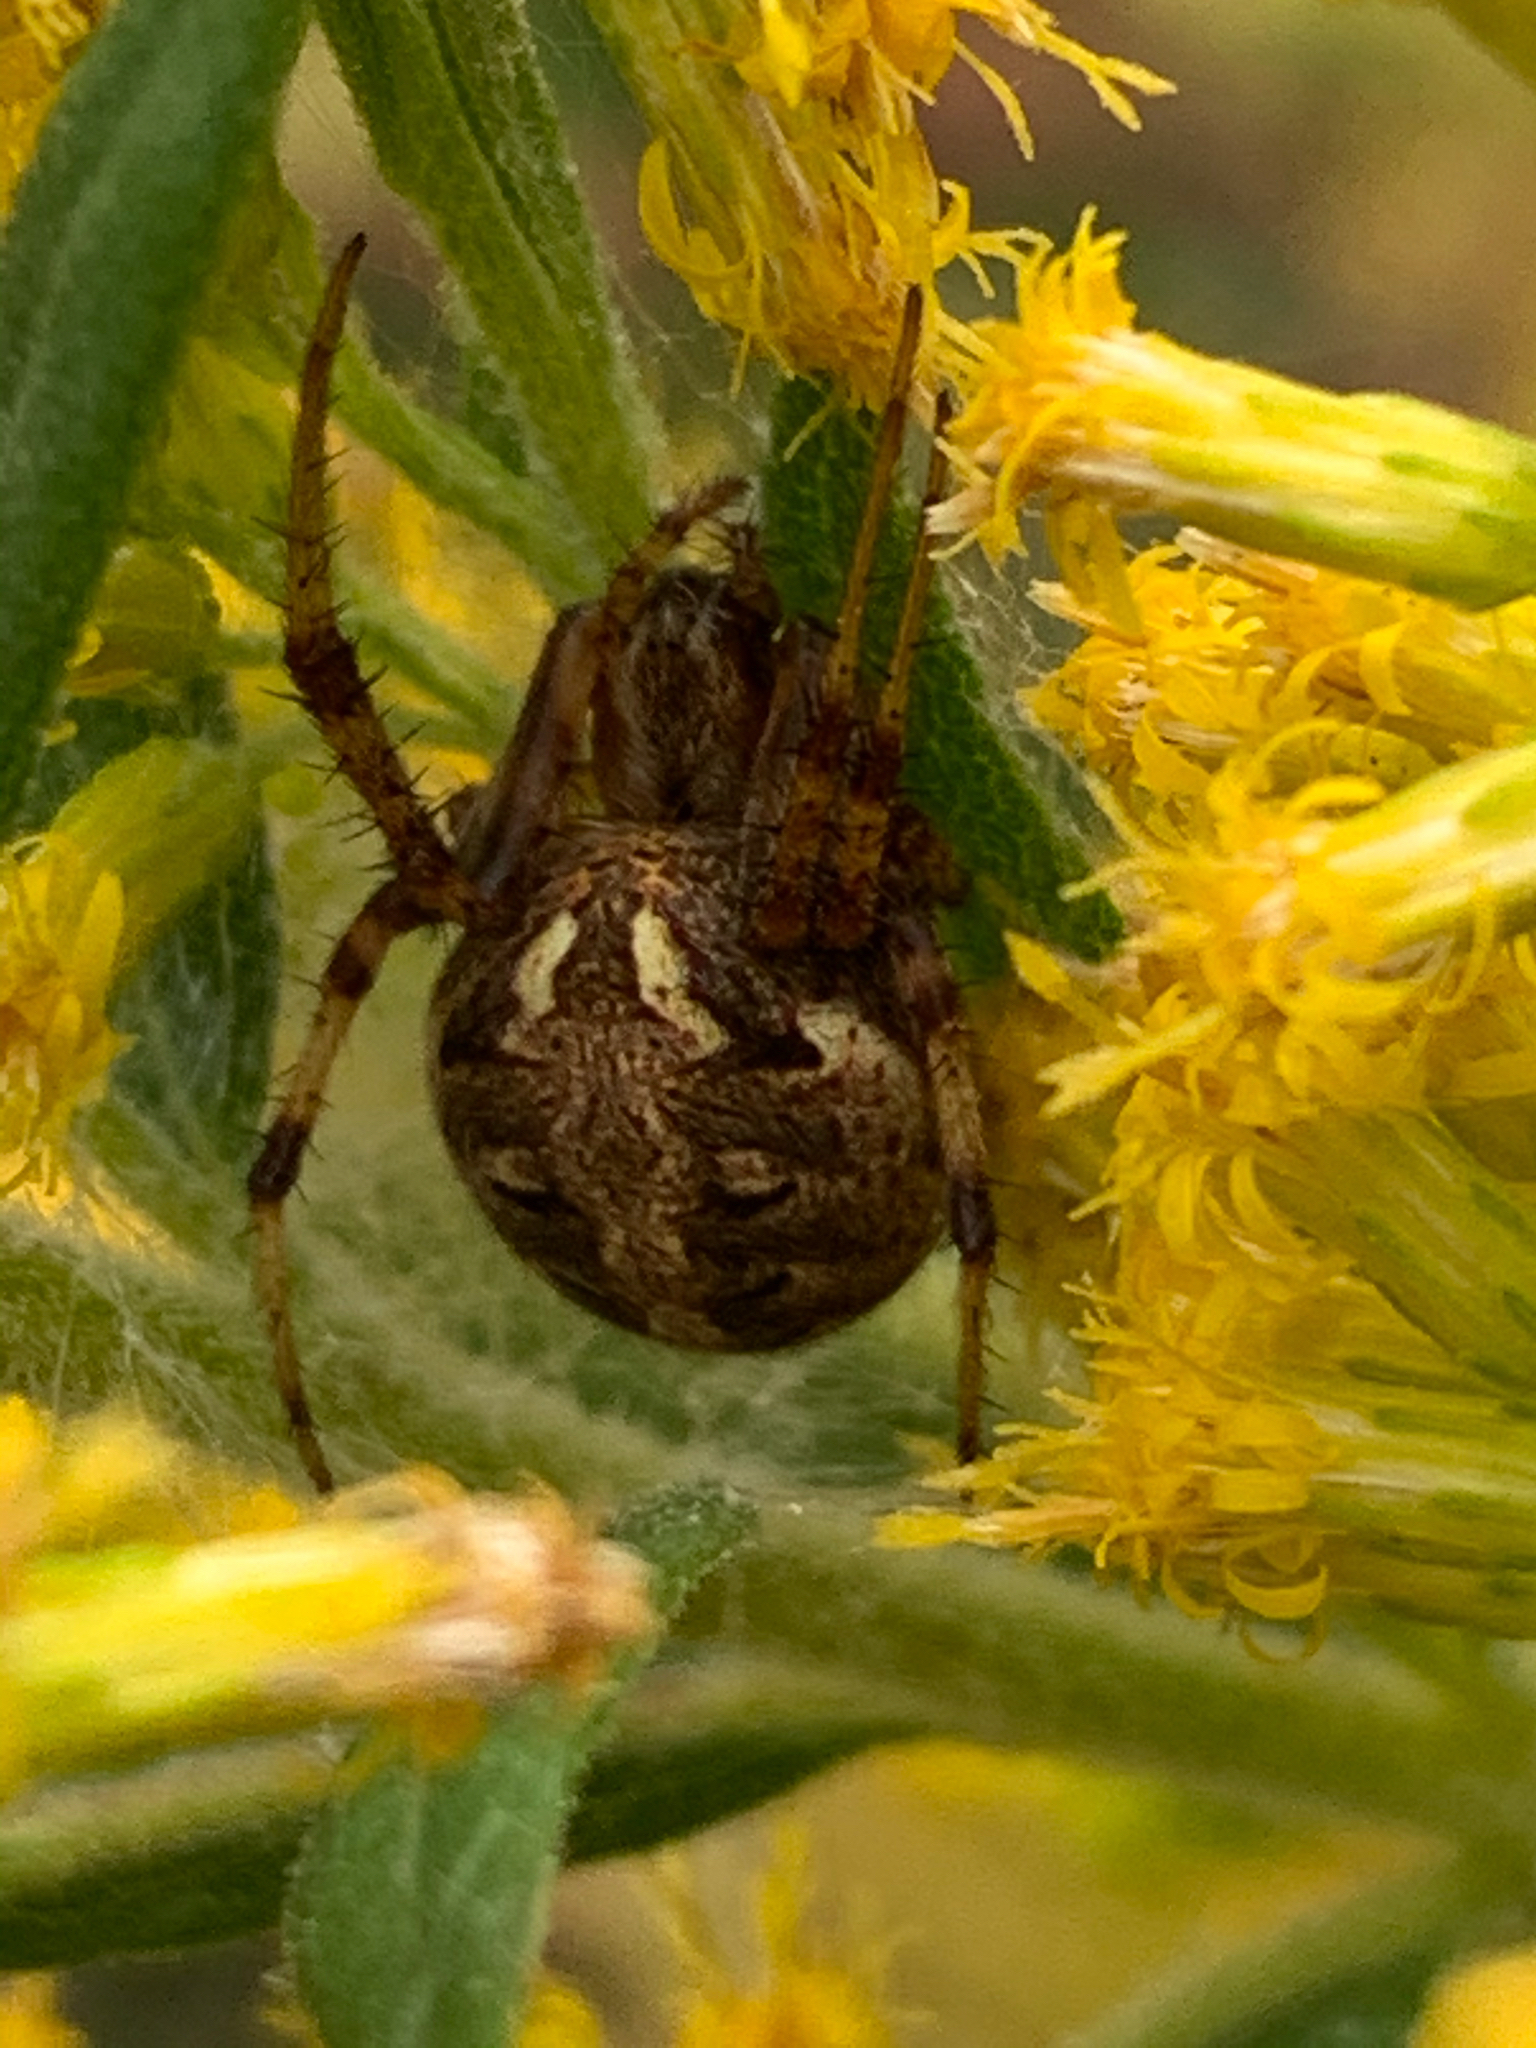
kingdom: Animalia
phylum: Arthropoda
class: Arachnida
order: Araneae
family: Araneidae
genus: Neoscona
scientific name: Neoscona arabesca
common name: Orb weavers
